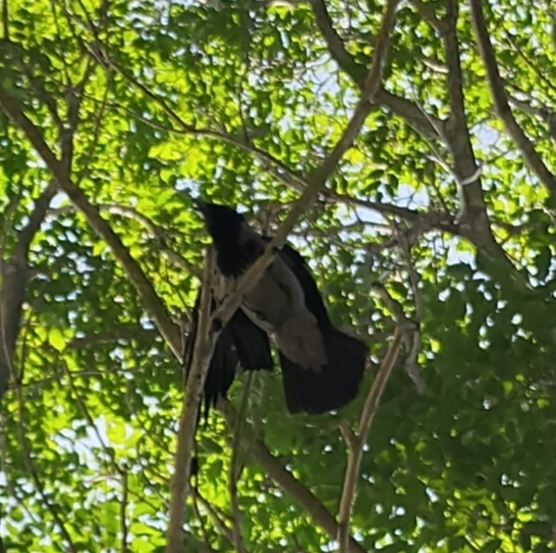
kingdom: Animalia
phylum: Chordata
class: Aves
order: Passeriformes
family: Corvidae
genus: Corvus
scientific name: Corvus cornix
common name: Hooded crow
